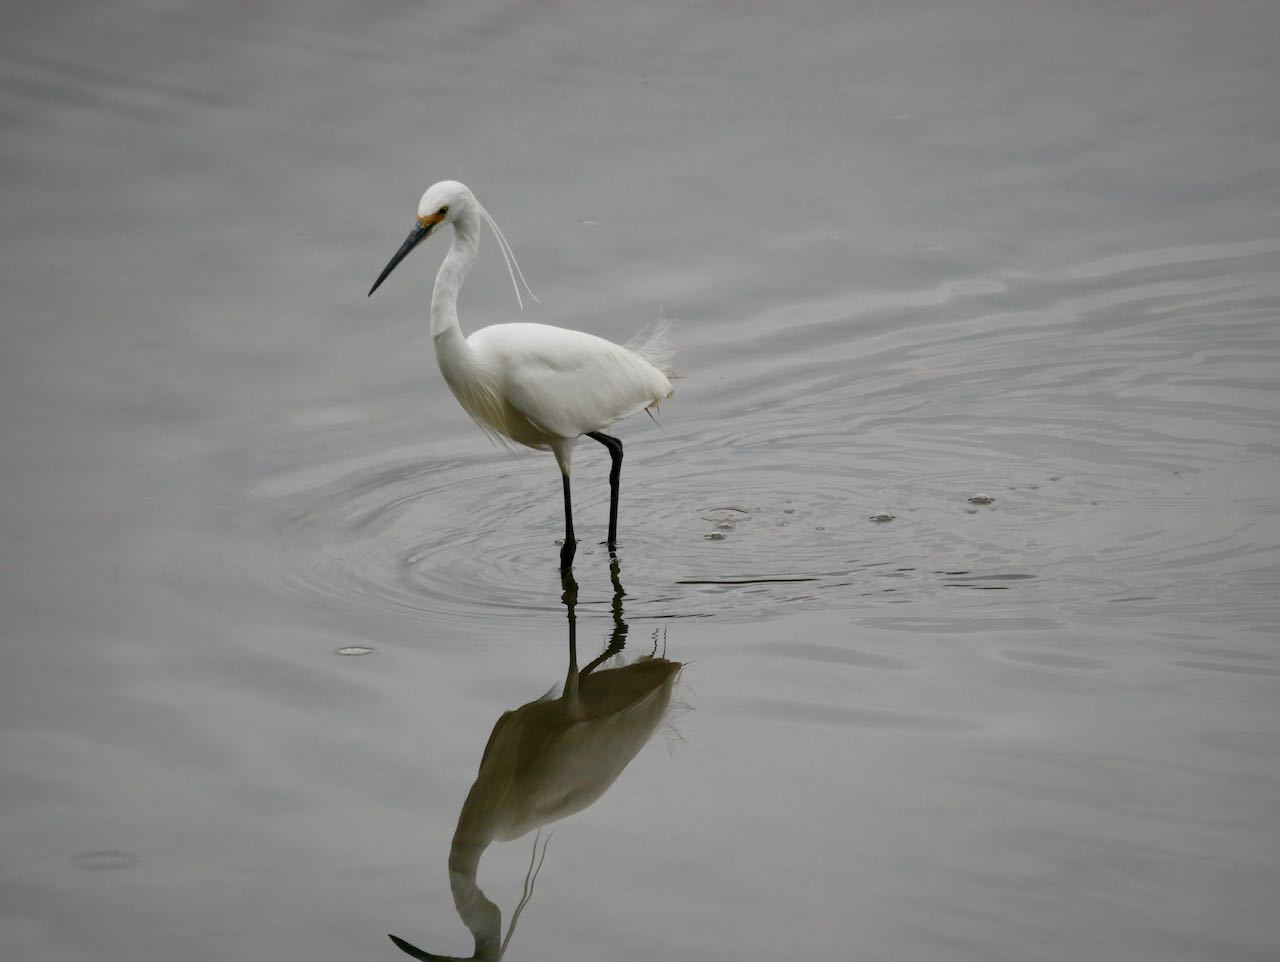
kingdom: Animalia
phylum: Chordata
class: Aves
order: Pelecaniformes
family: Ardeidae
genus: Egretta
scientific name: Egretta garzetta
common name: Little egret
